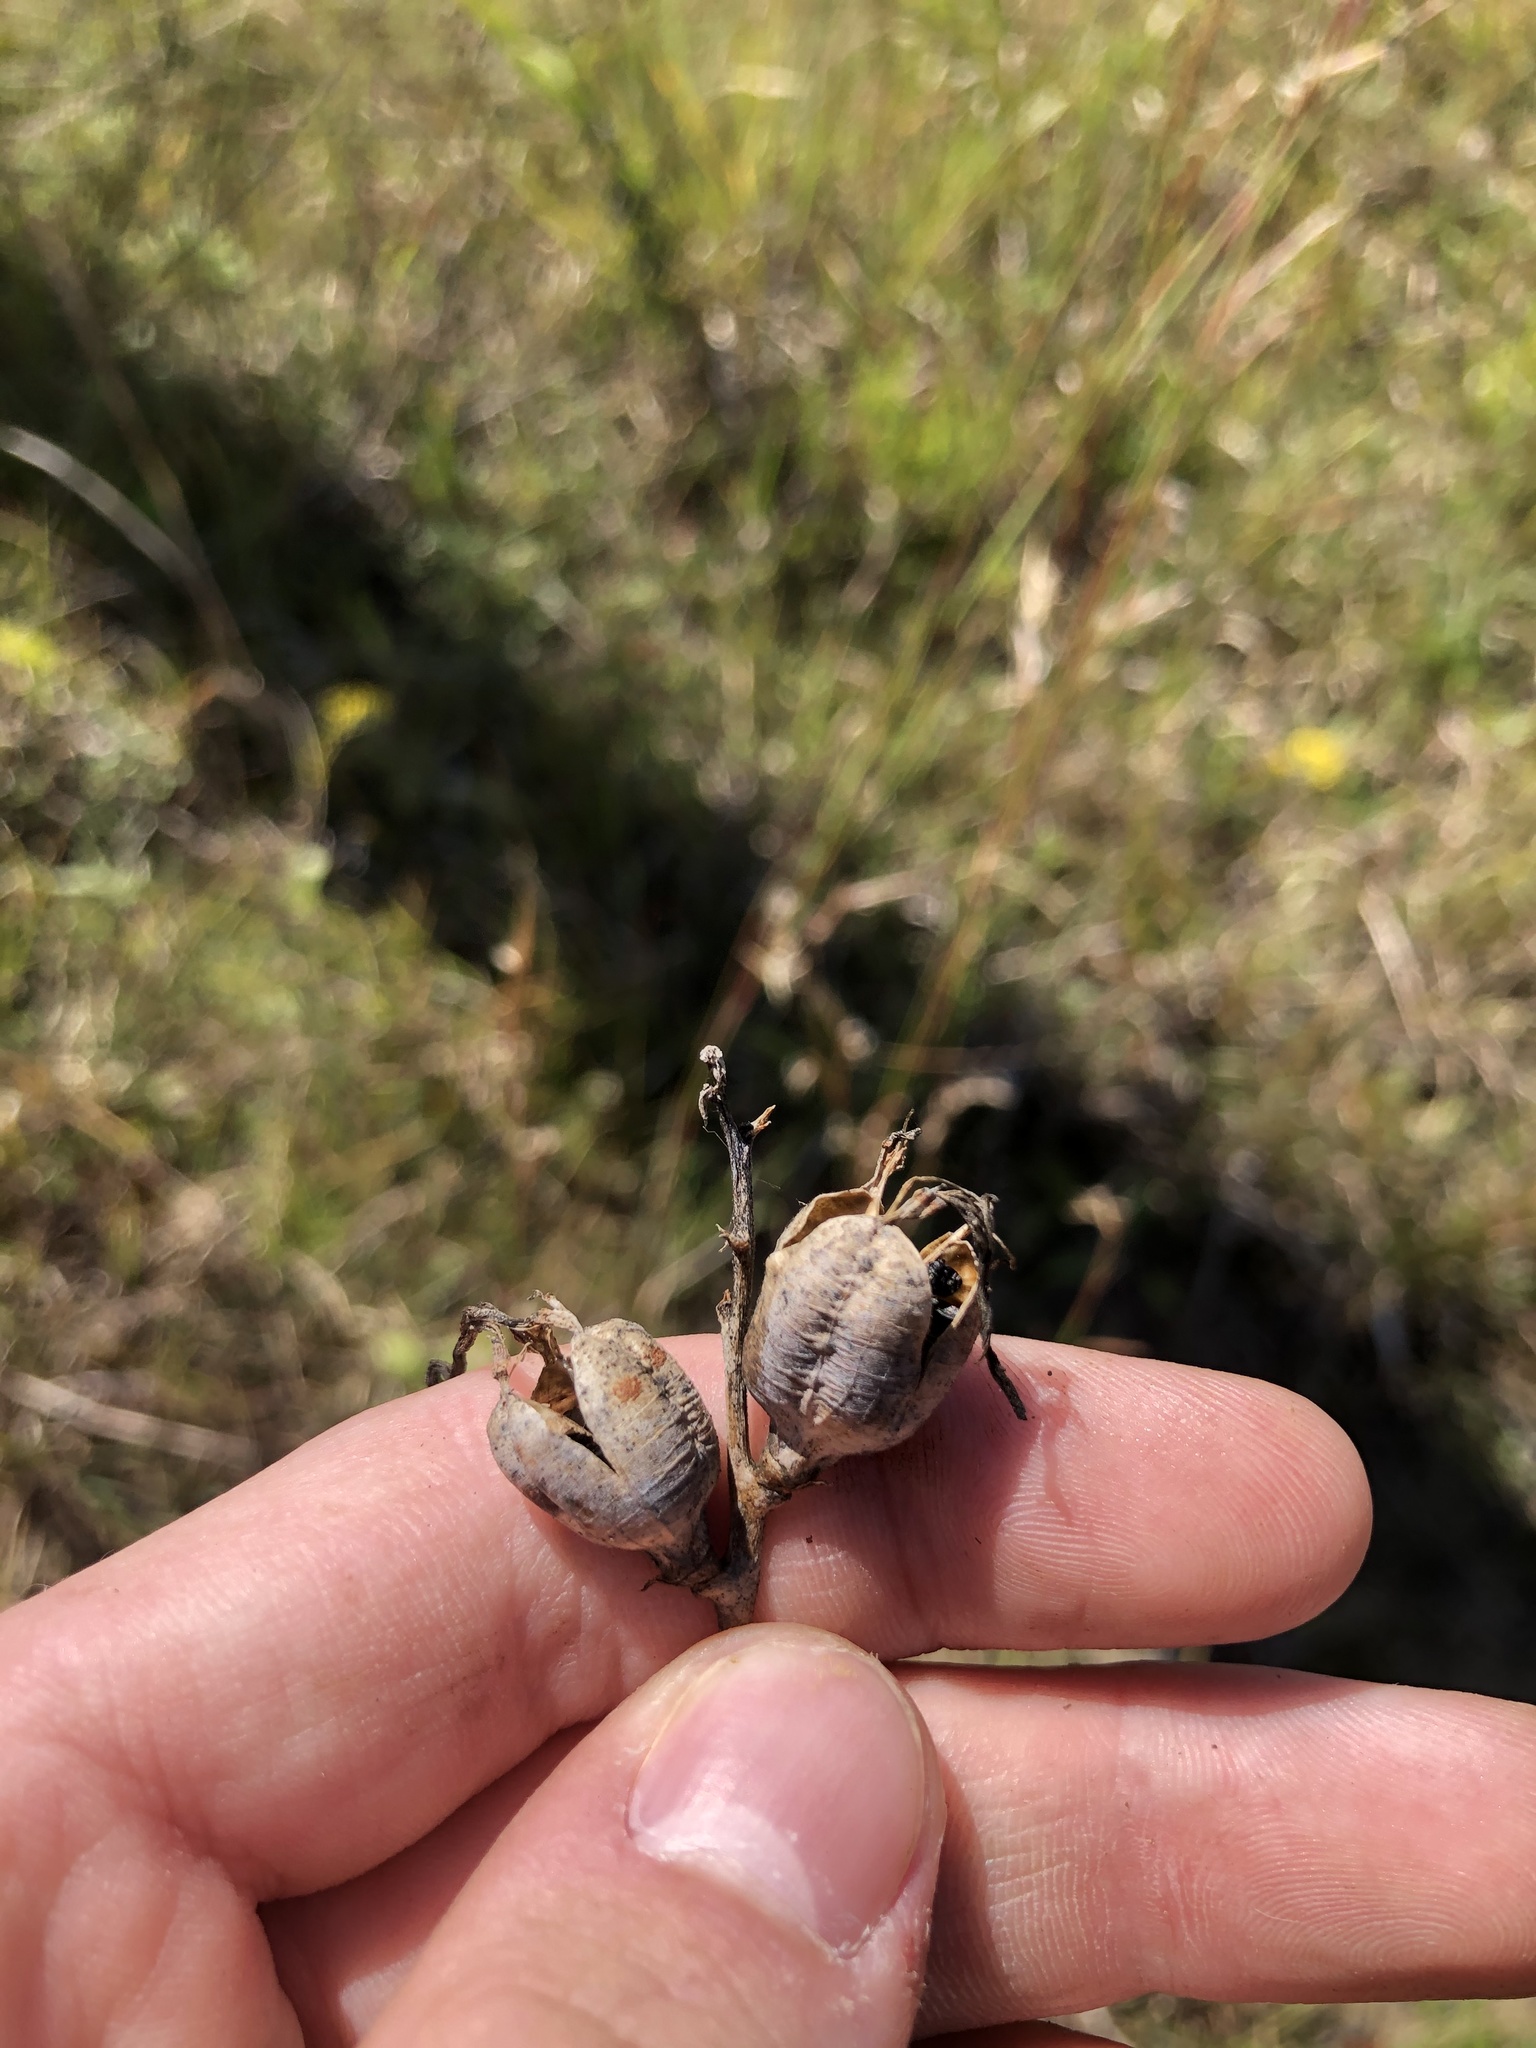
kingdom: Plantae
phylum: Tracheophyta
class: Liliopsida
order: Asparagales
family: Asparagaceae
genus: Agave
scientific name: Agave virginica
